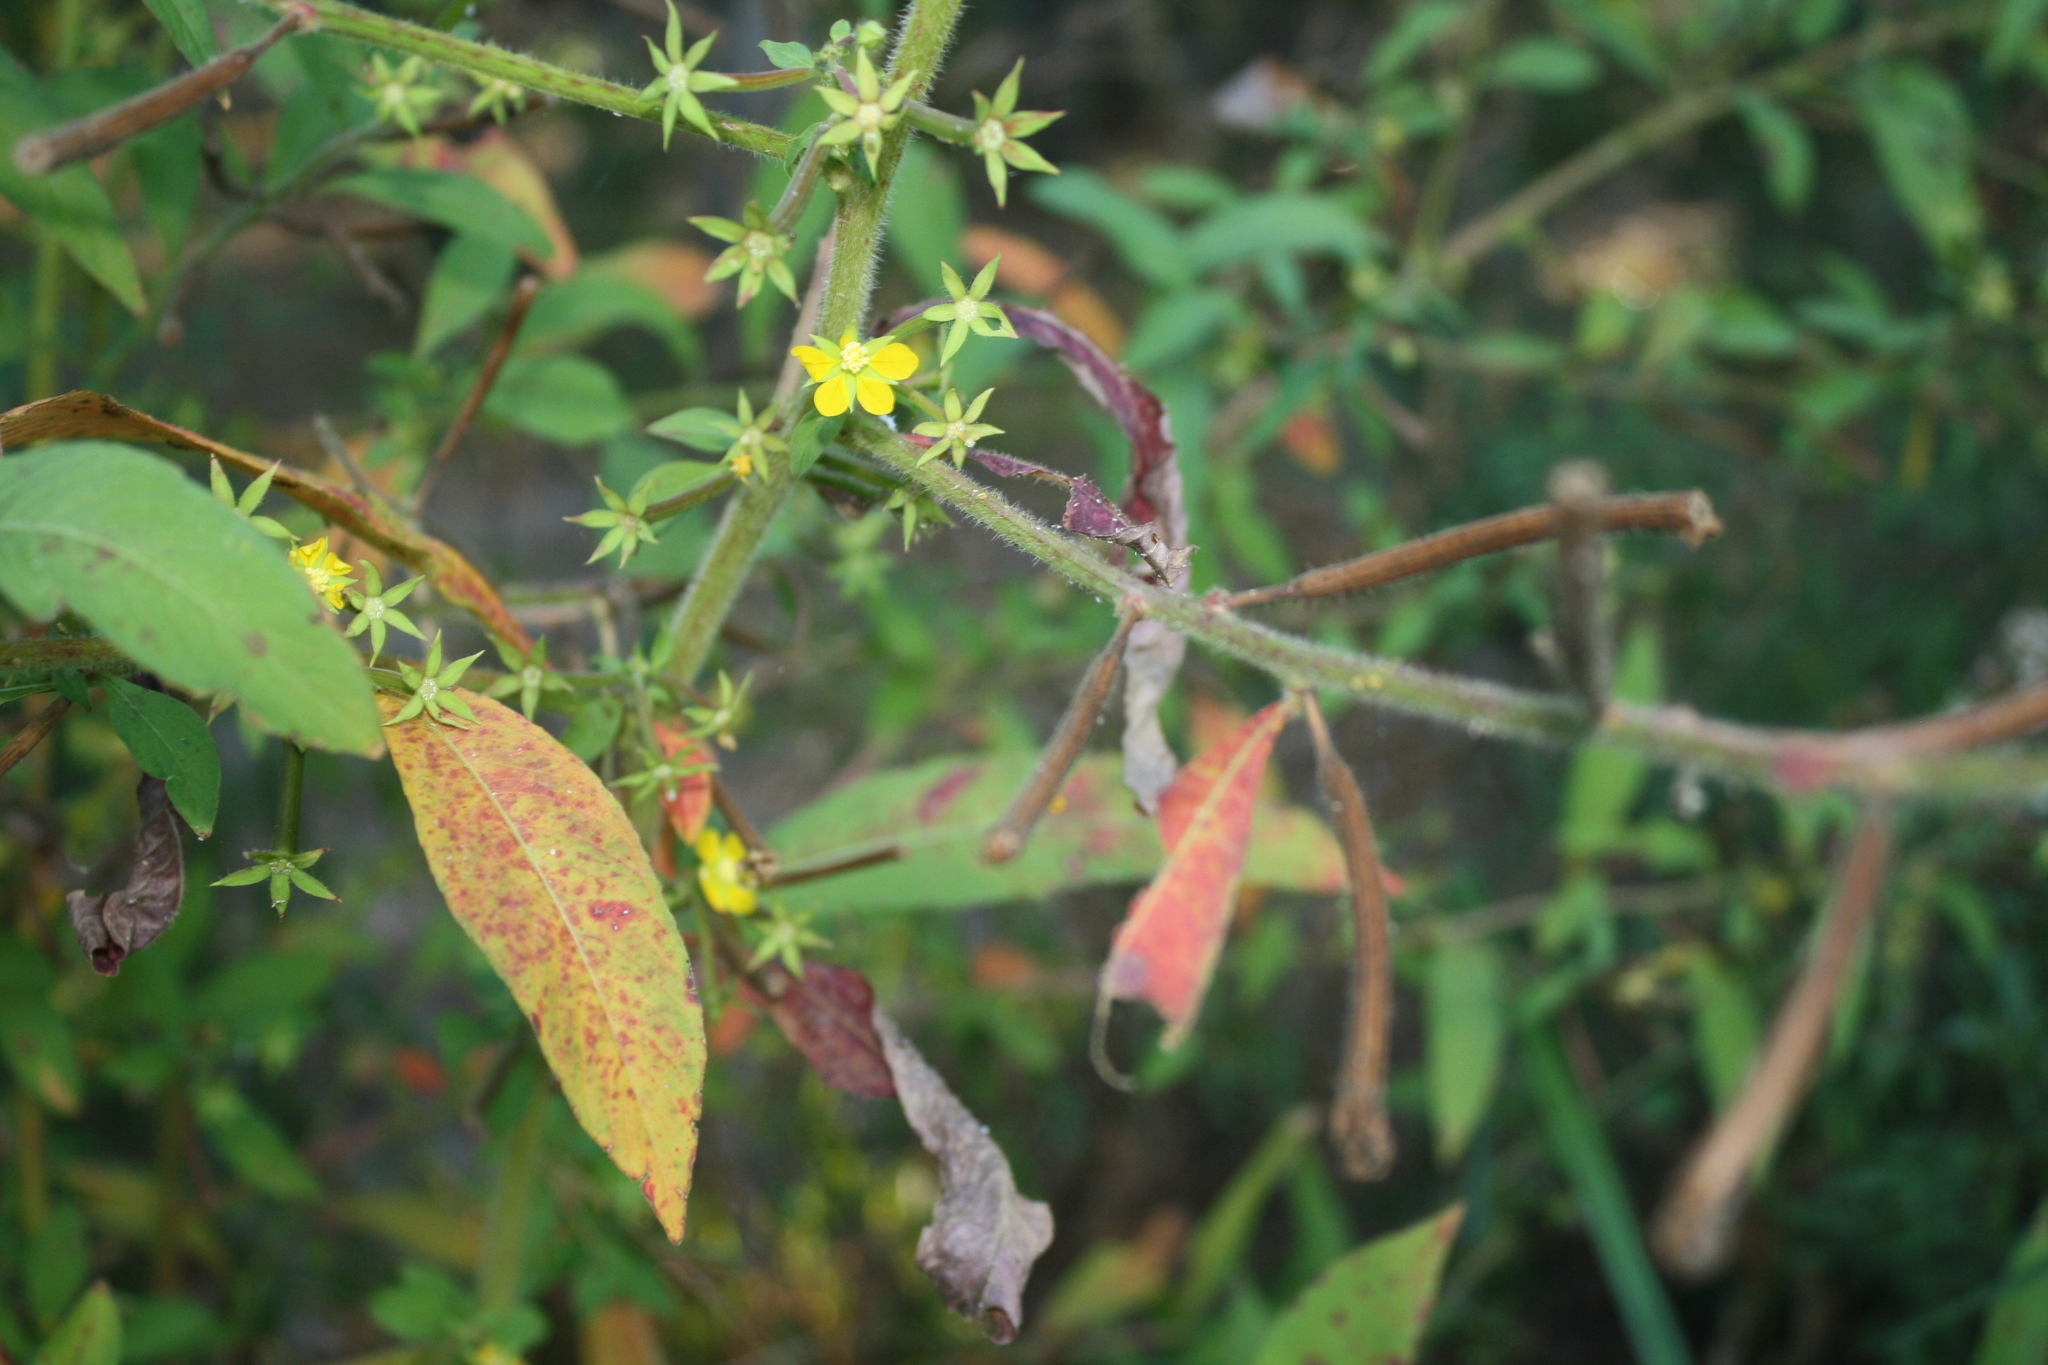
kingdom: Plantae
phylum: Tracheophyta
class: Magnoliopsida
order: Myrtales
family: Onagraceae
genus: Ludwigia
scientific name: Ludwigia leptocarpa
